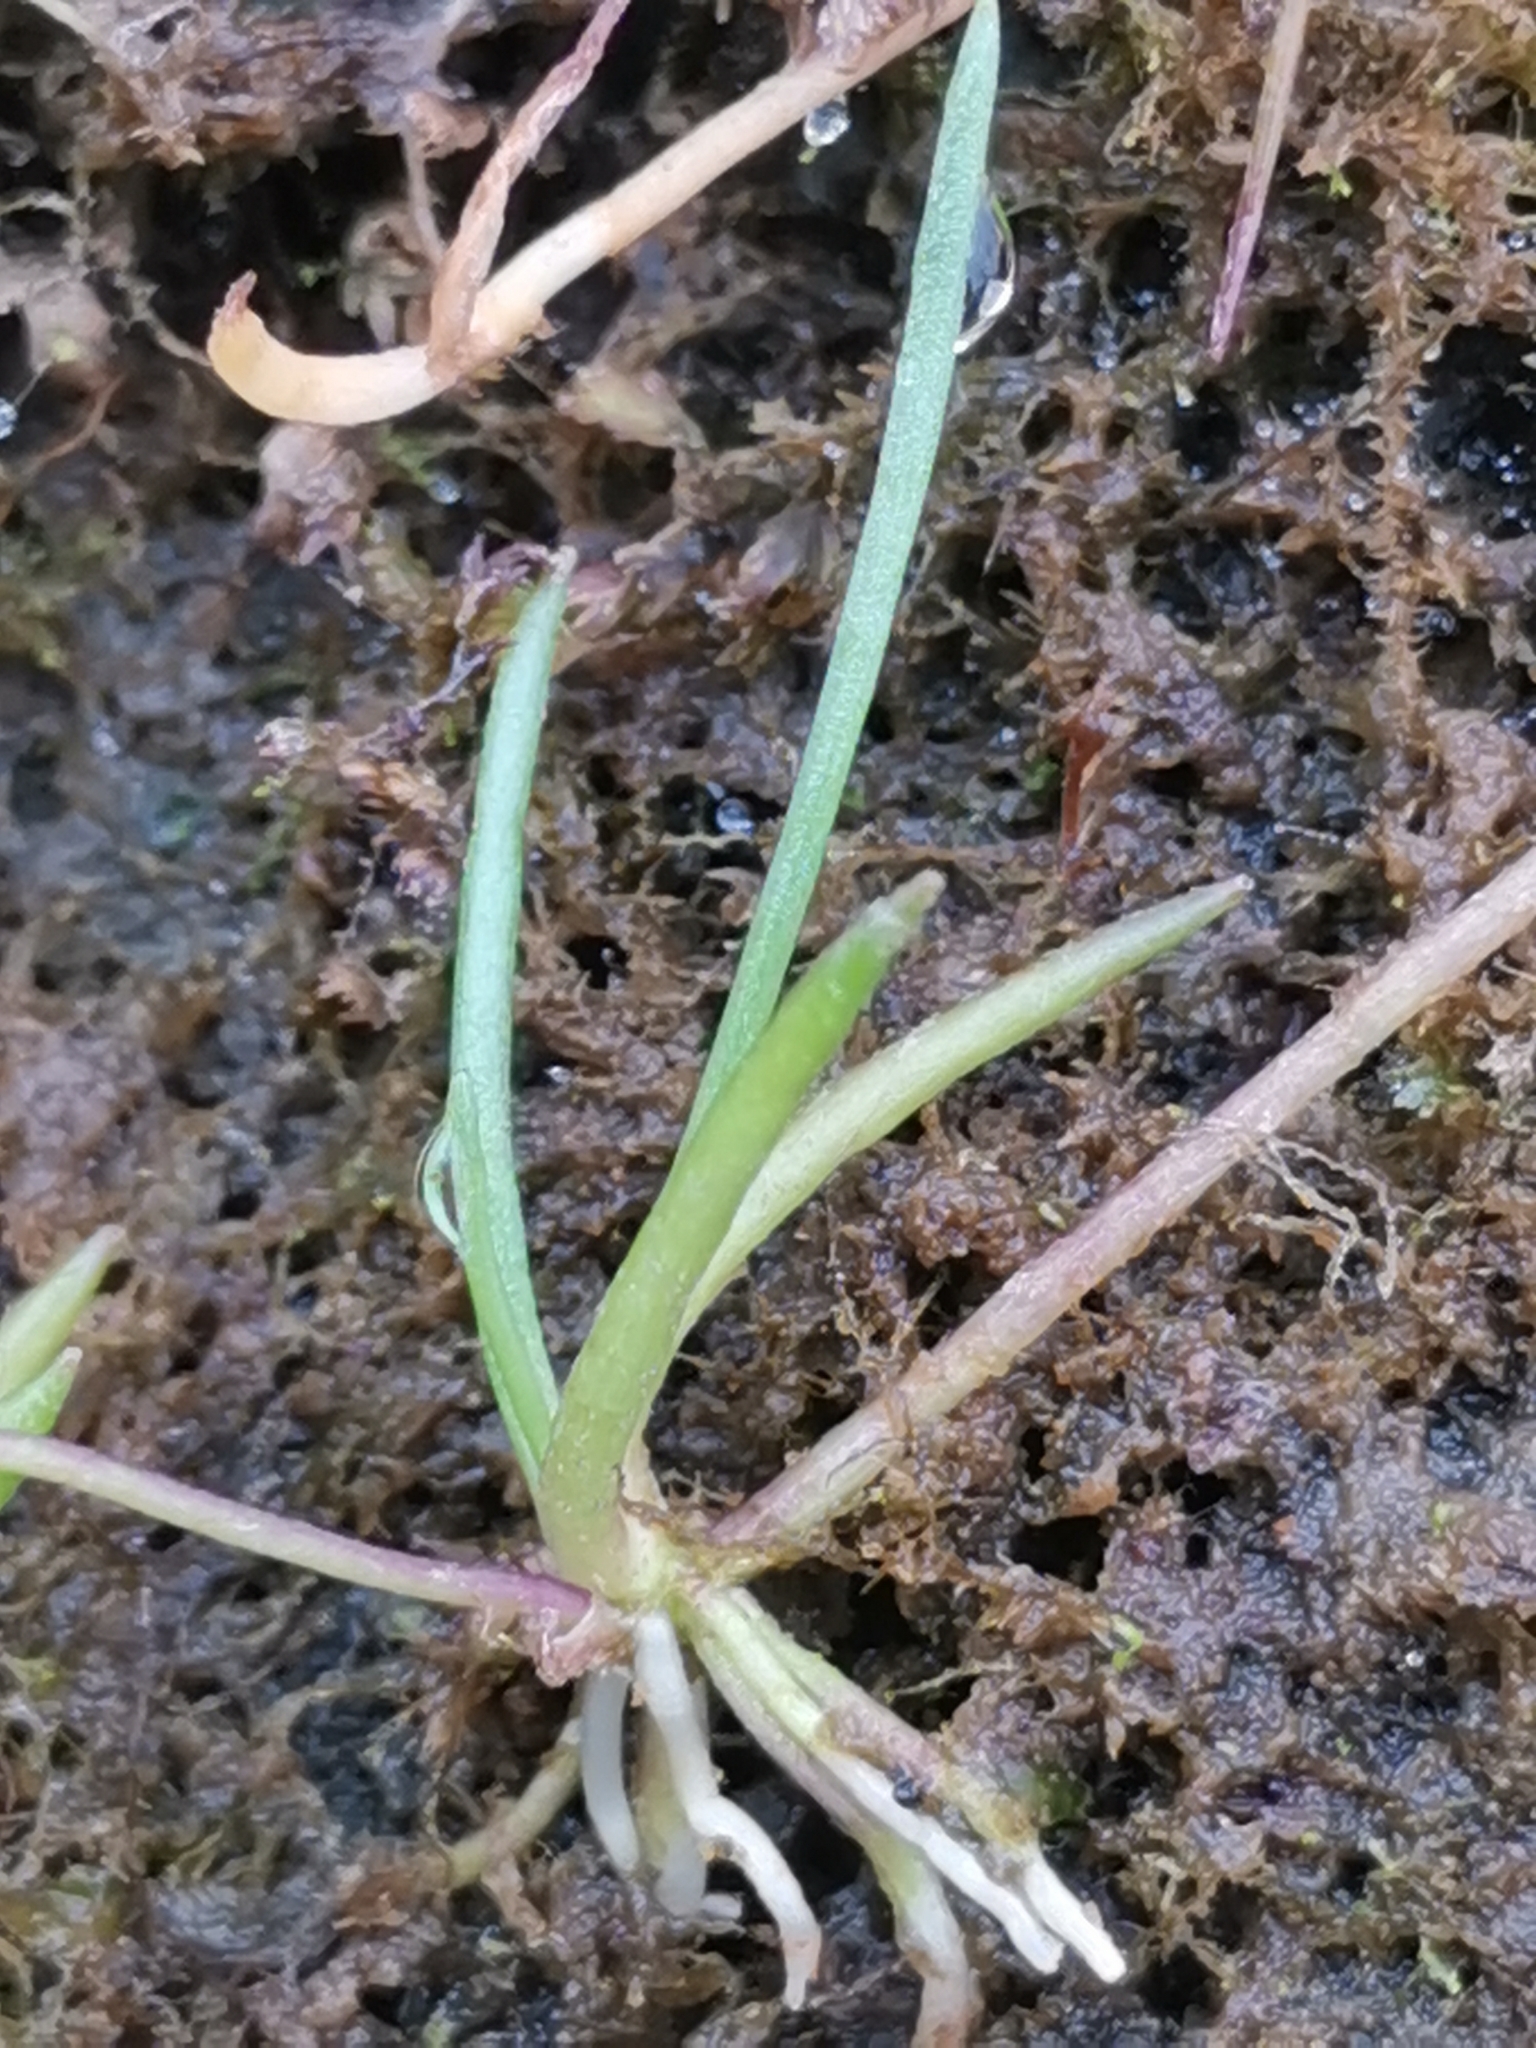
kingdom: Plantae
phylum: Tracheophyta
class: Magnoliopsida
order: Lamiales
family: Plantaginaceae
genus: Littorella
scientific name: Littorella uniflora
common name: Shoreweed
